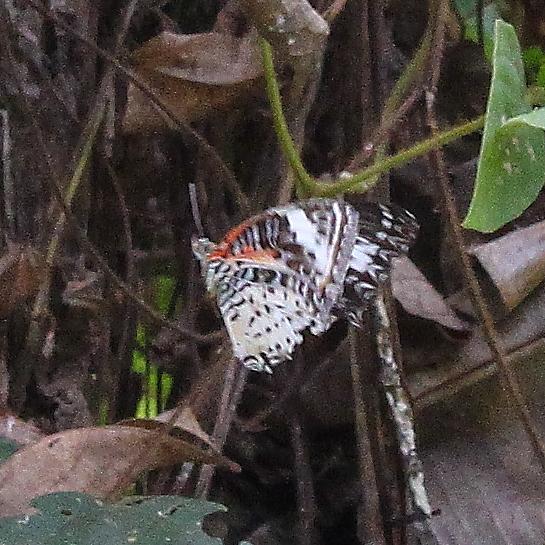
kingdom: Animalia
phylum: Arthropoda
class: Insecta
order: Lepidoptera
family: Nymphalidae
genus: Cethosia
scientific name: Cethosia cyane
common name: Leopard lacewing butterfly
